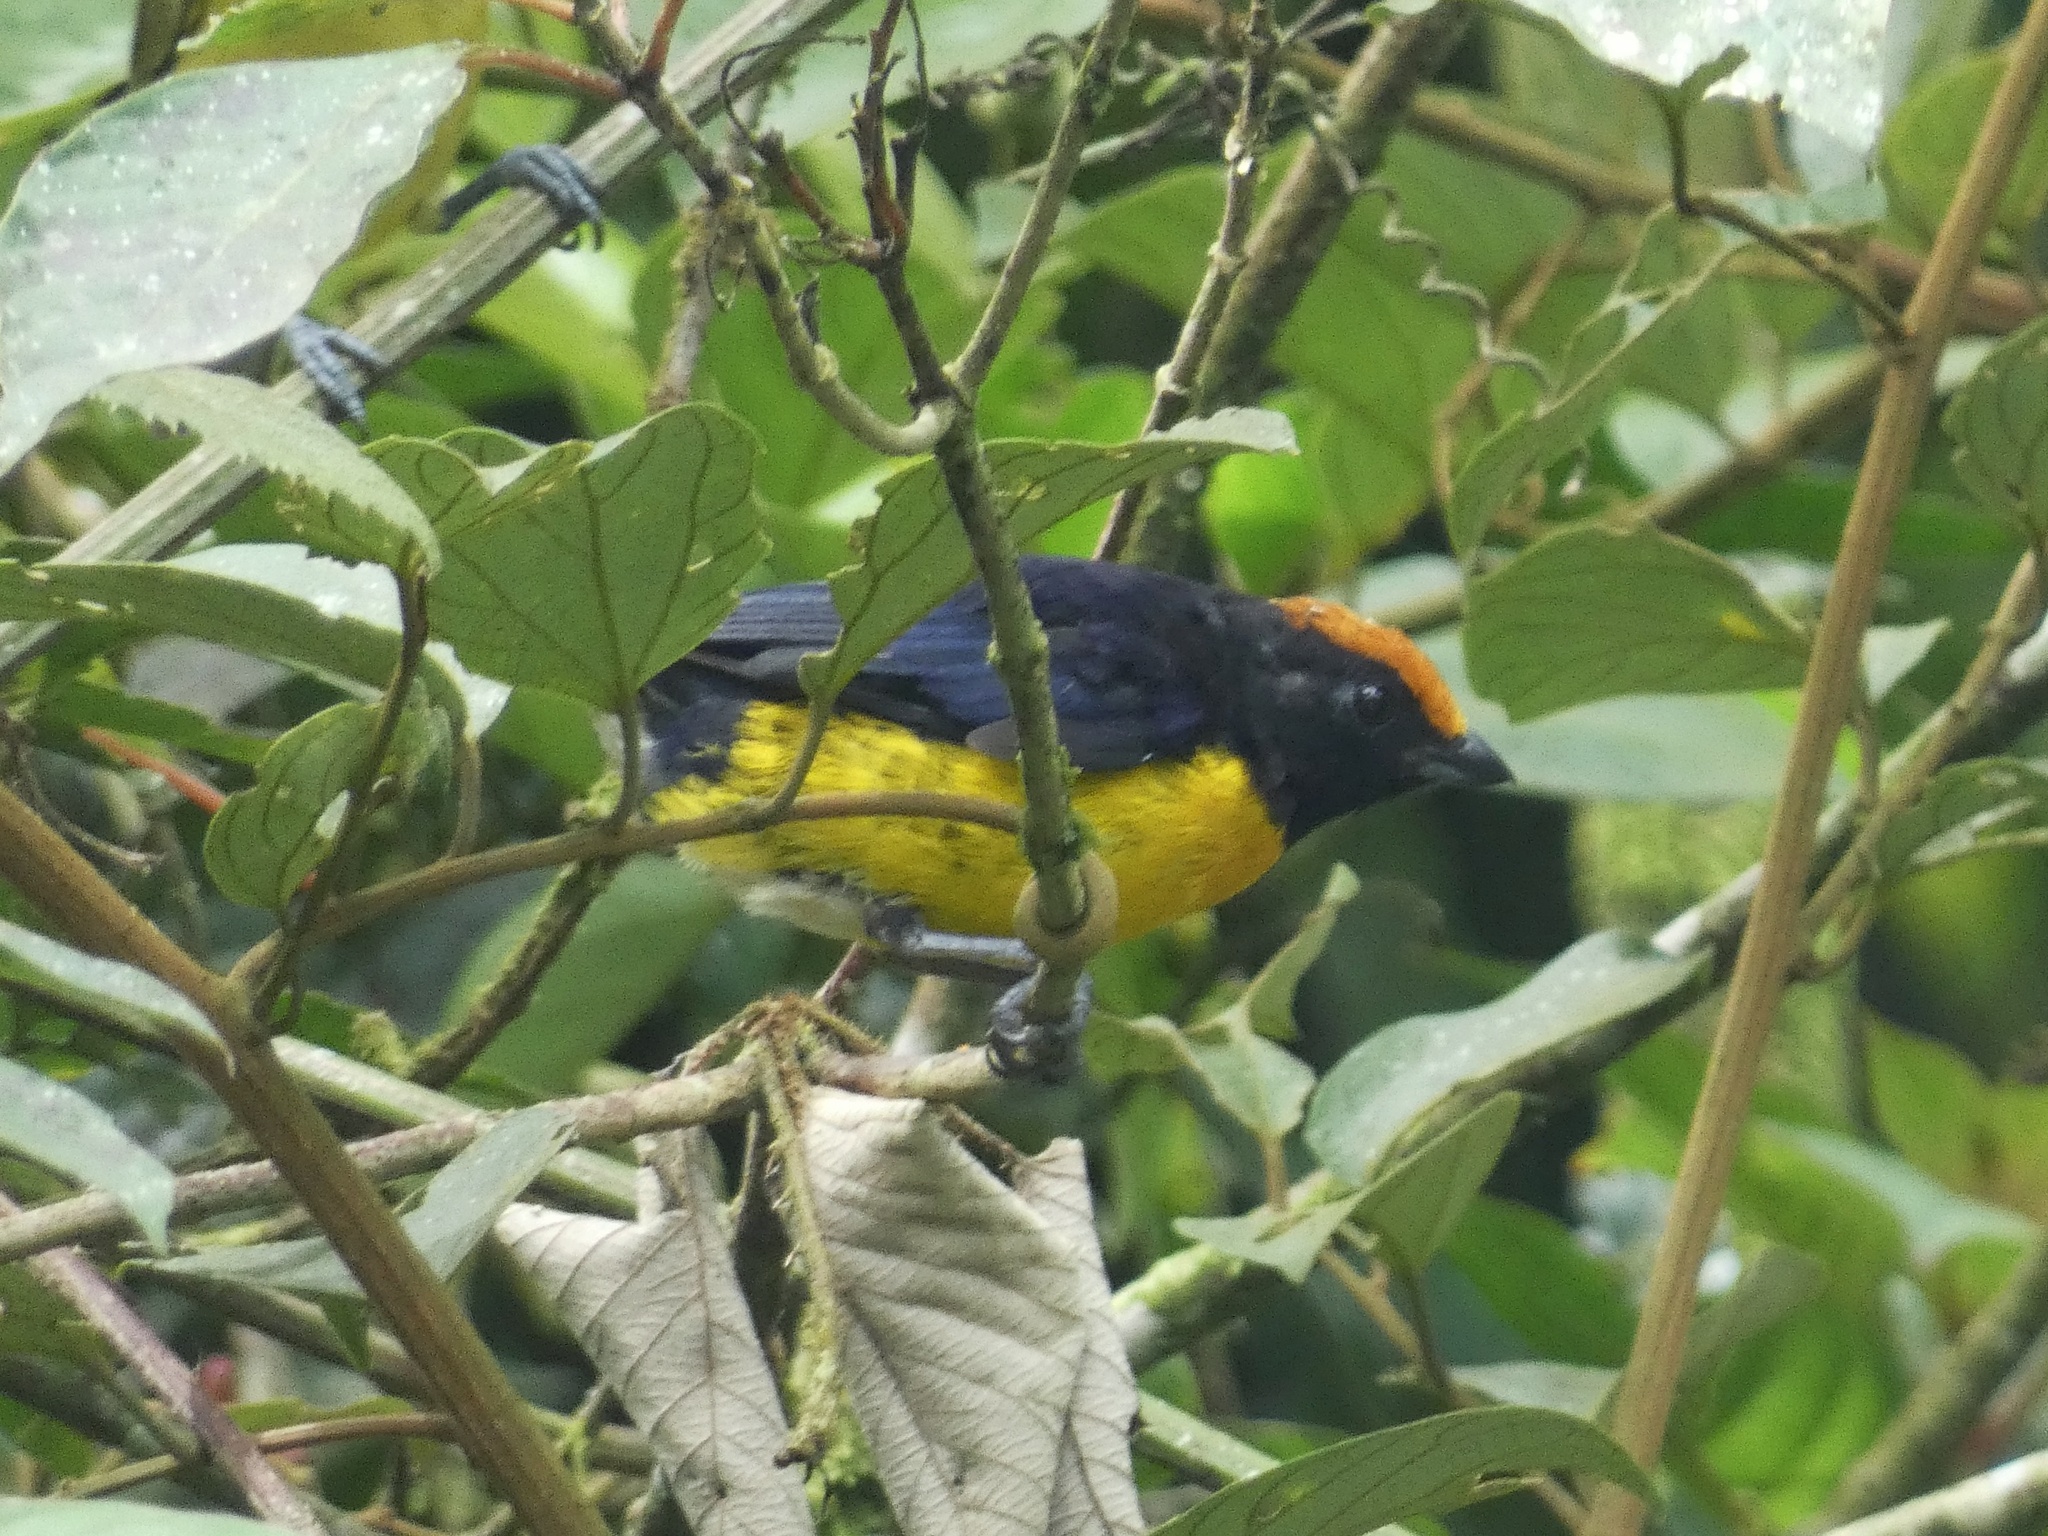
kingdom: Animalia
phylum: Chordata
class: Aves
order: Passeriformes
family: Fringillidae
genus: Euphonia
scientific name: Euphonia anneae
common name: Tawny-capped euphonia
